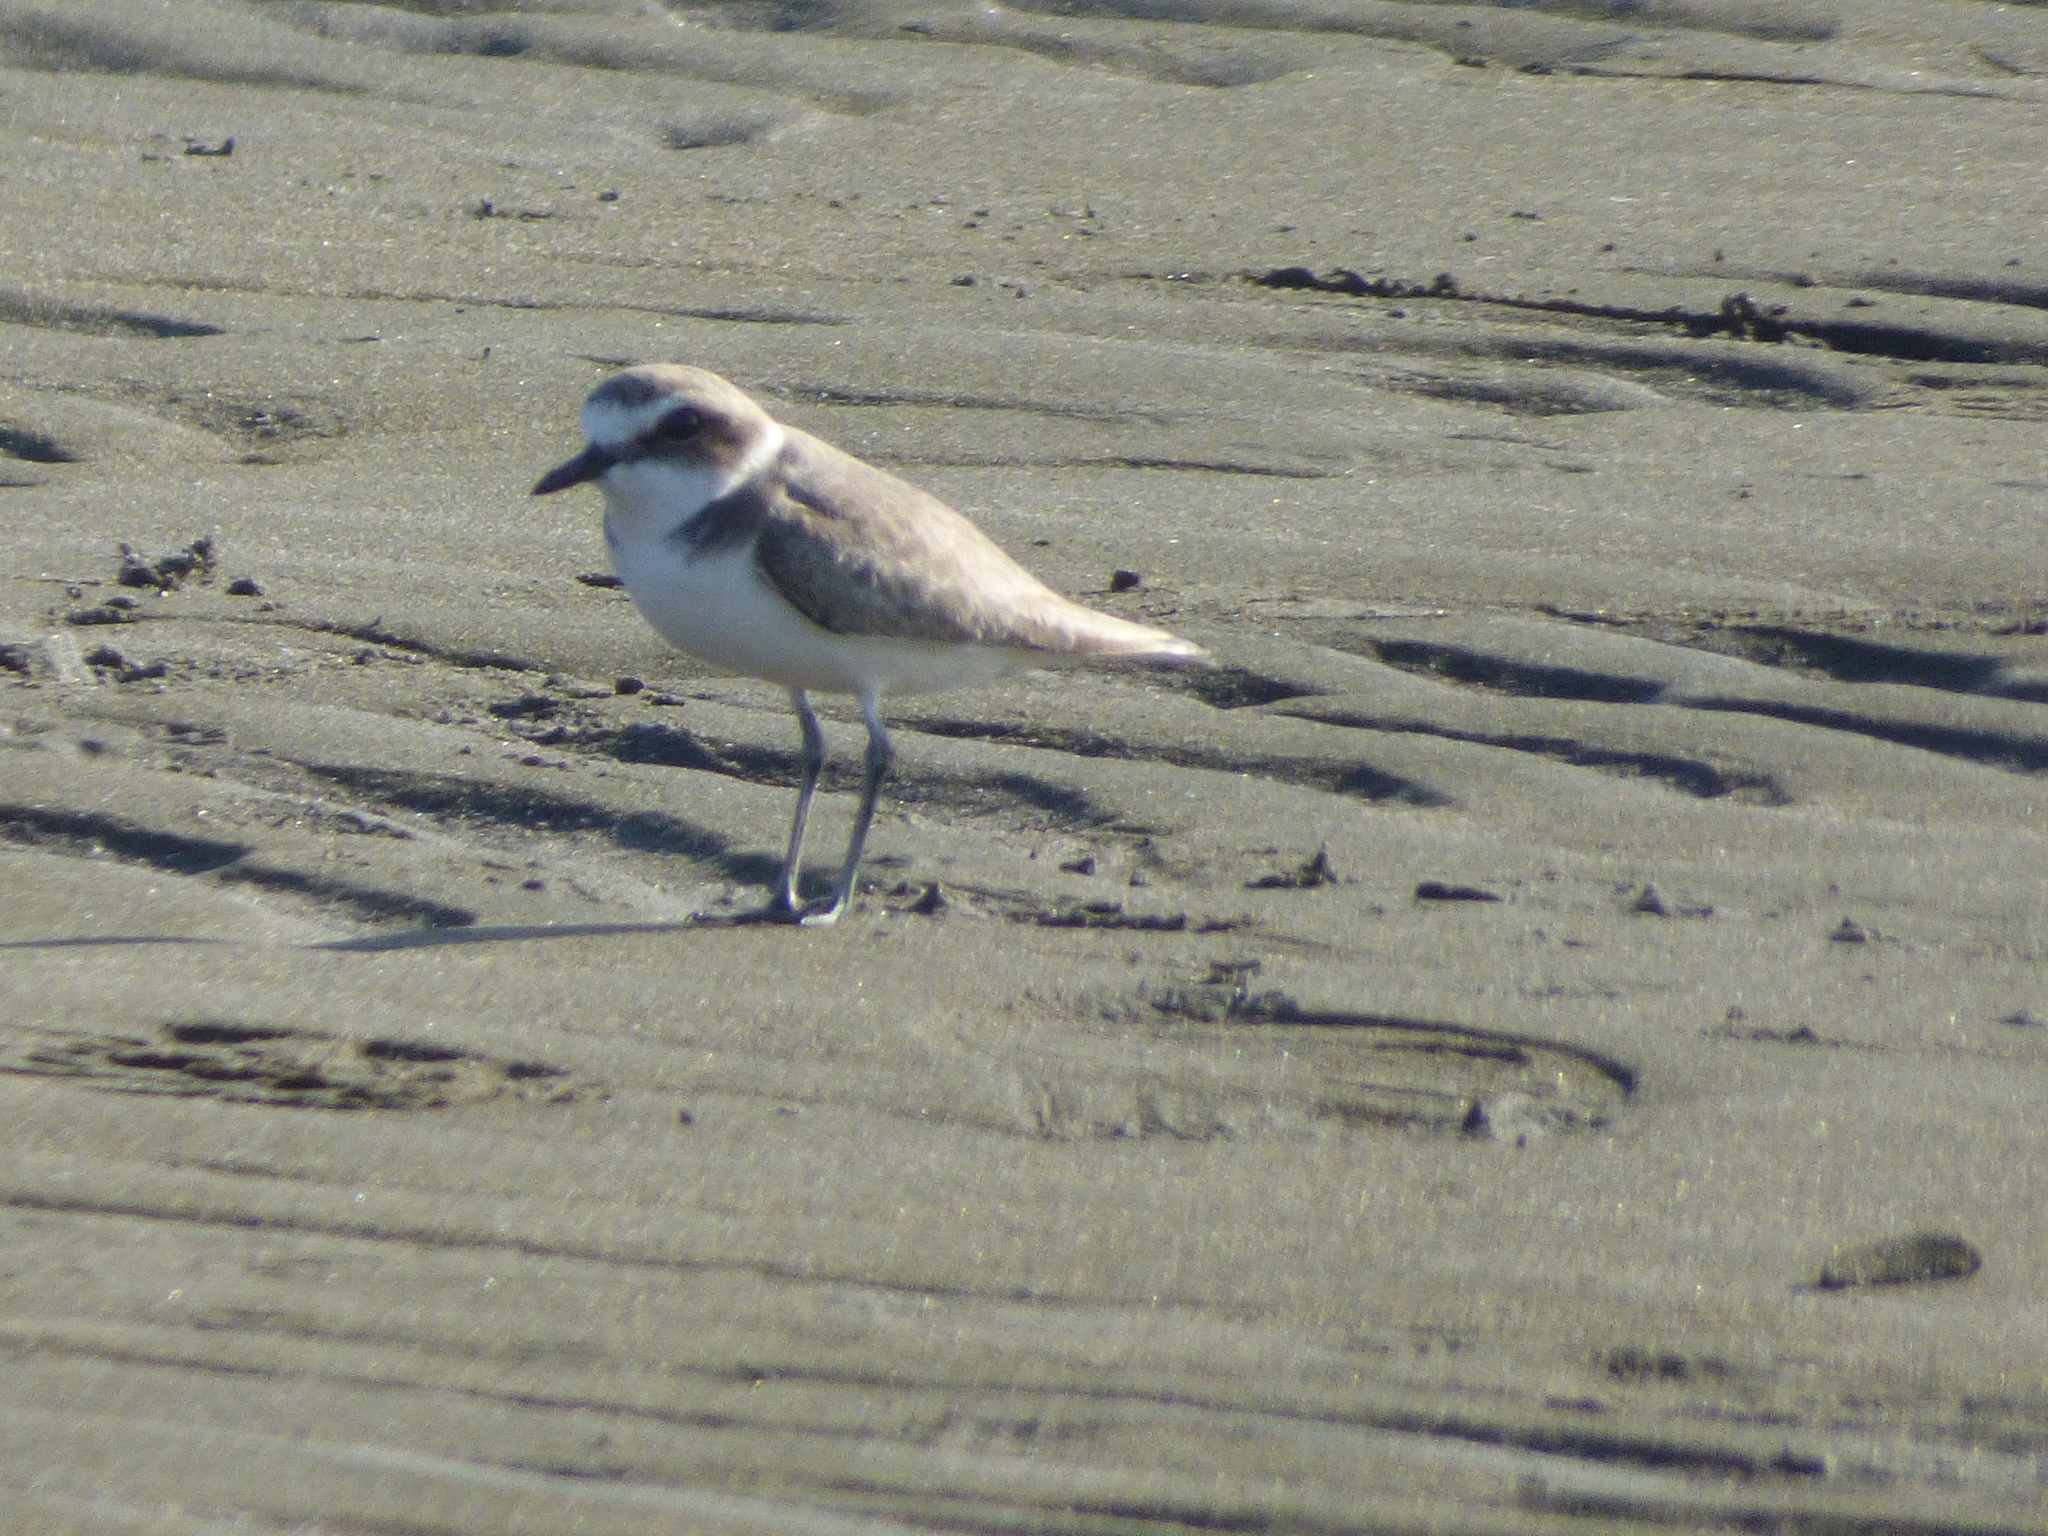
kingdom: Animalia
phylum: Chordata
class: Aves
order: Charadriiformes
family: Charadriidae
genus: Charadrius
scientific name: Charadrius alexandrinus
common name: Kentish plover
